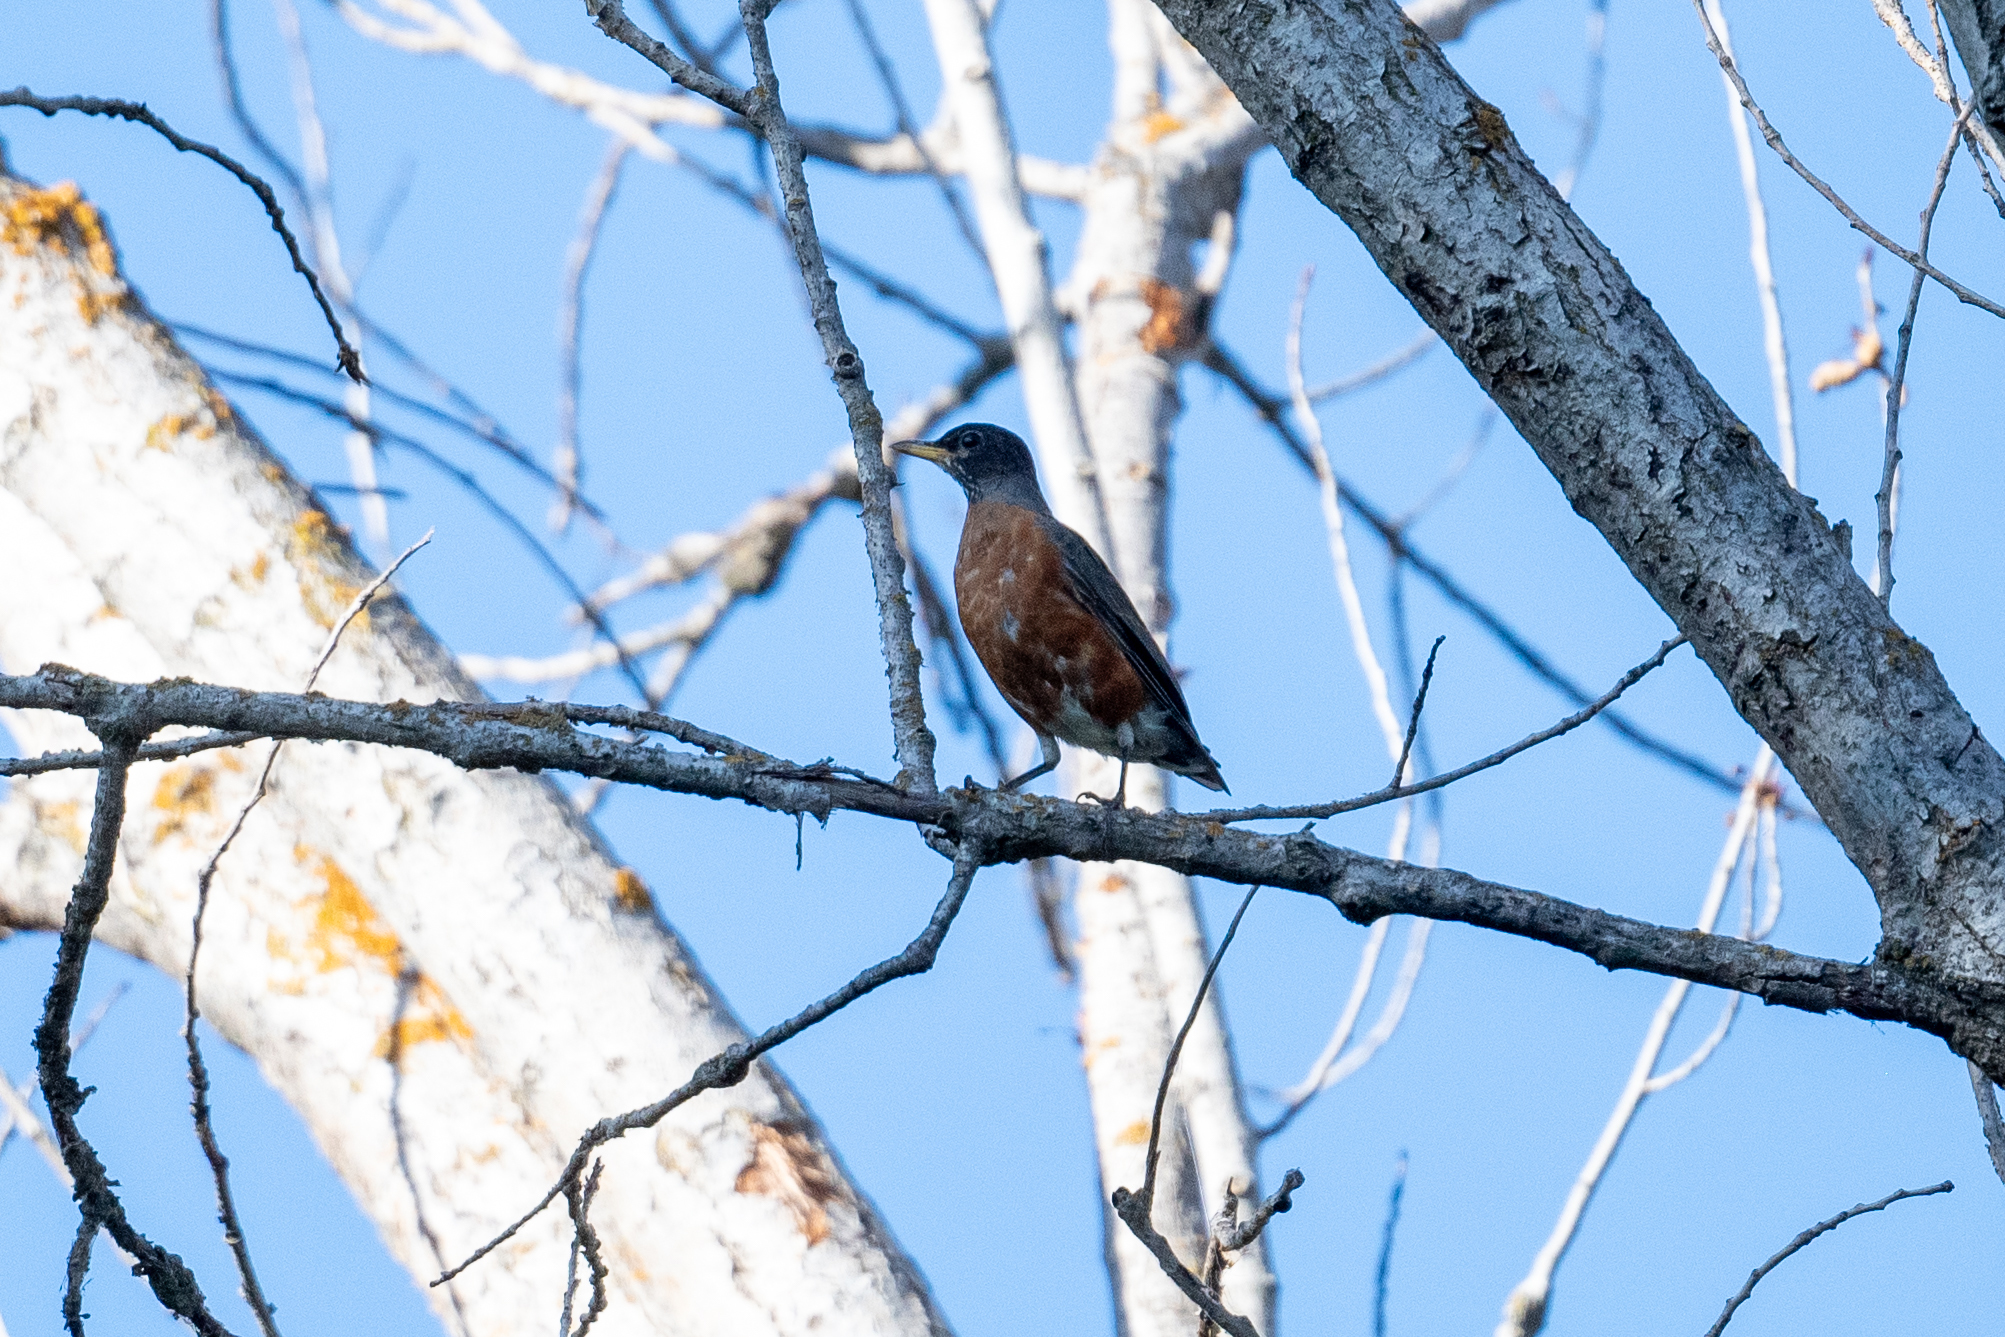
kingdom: Animalia
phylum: Chordata
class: Aves
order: Passeriformes
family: Turdidae
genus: Turdus
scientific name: Turdus migratorius
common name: American robin
